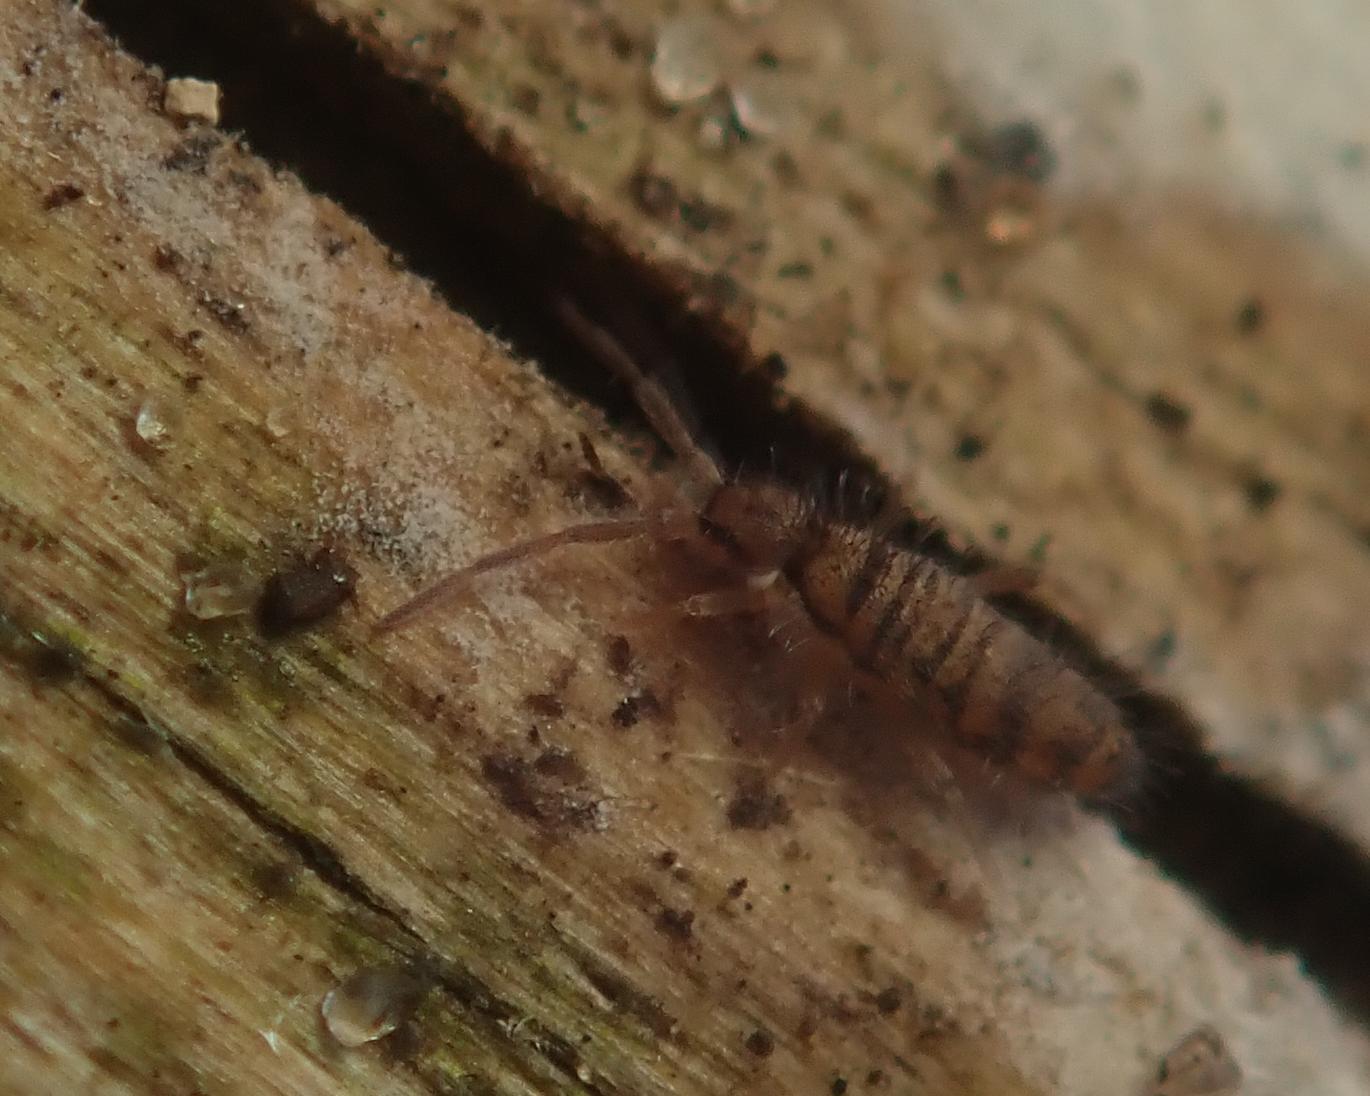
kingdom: Animalia
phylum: Arthropoda
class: Collembola
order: Entomobryomorpha
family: Entomobryidae
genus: Entomobrya
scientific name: Entomobrya multifasciata
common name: Springtail
